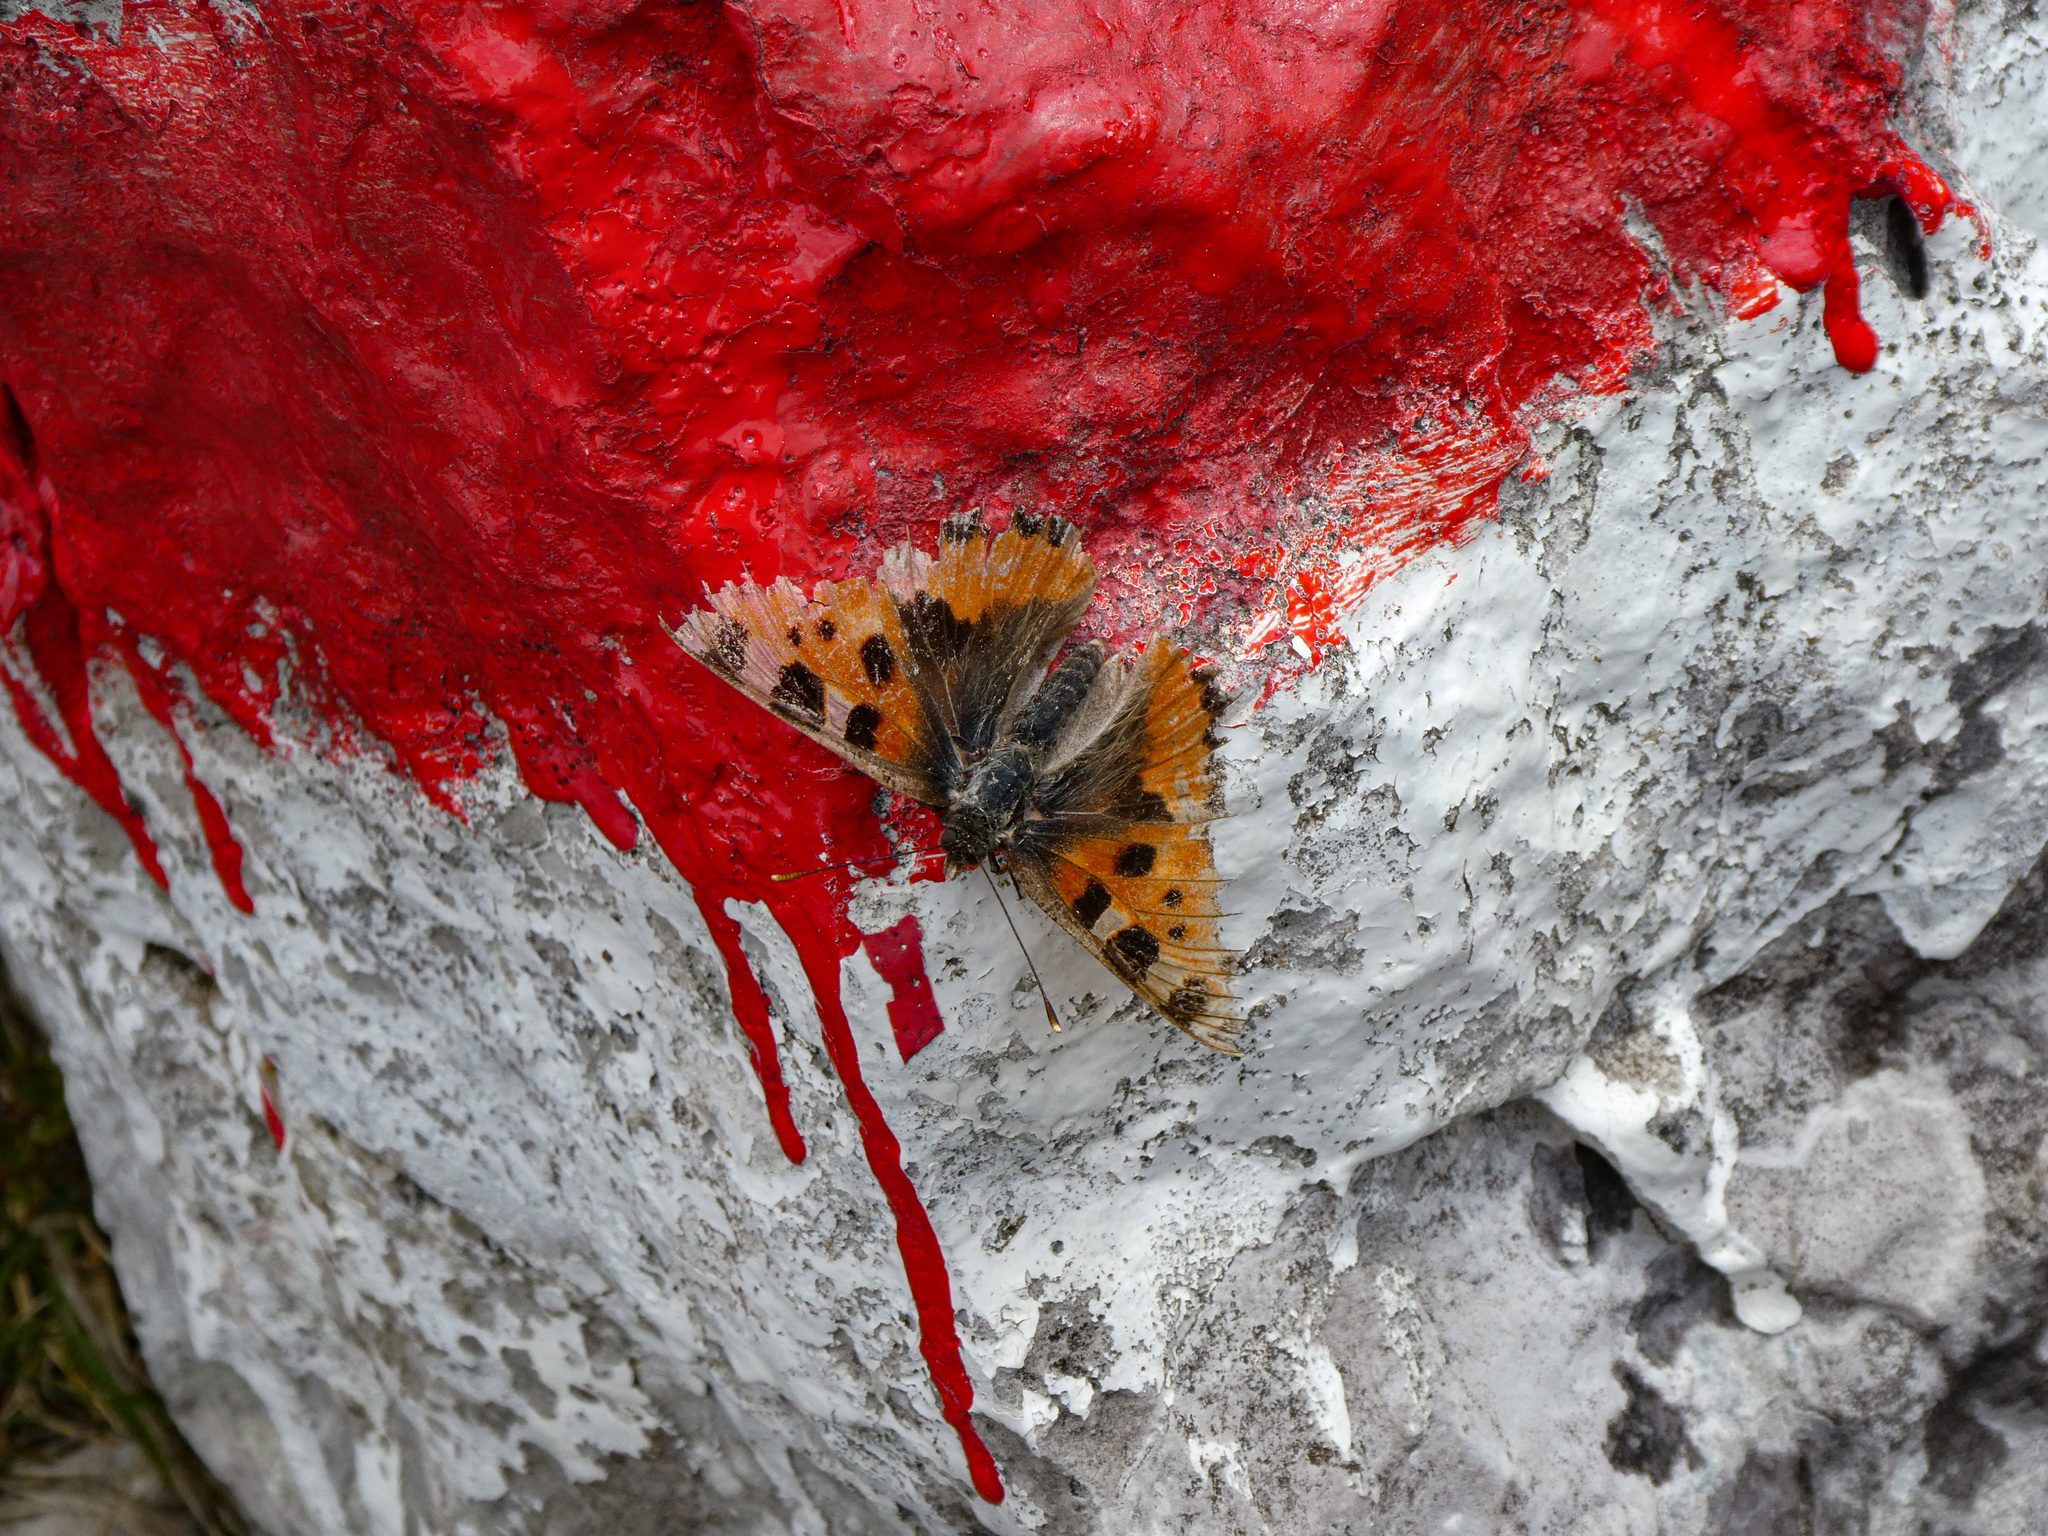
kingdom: Animalia
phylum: Arthropoda
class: Insecta
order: Lepidoptera
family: Nymphalidae
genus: Aglais
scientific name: Aglais urticae
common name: Small tortoiseshell
